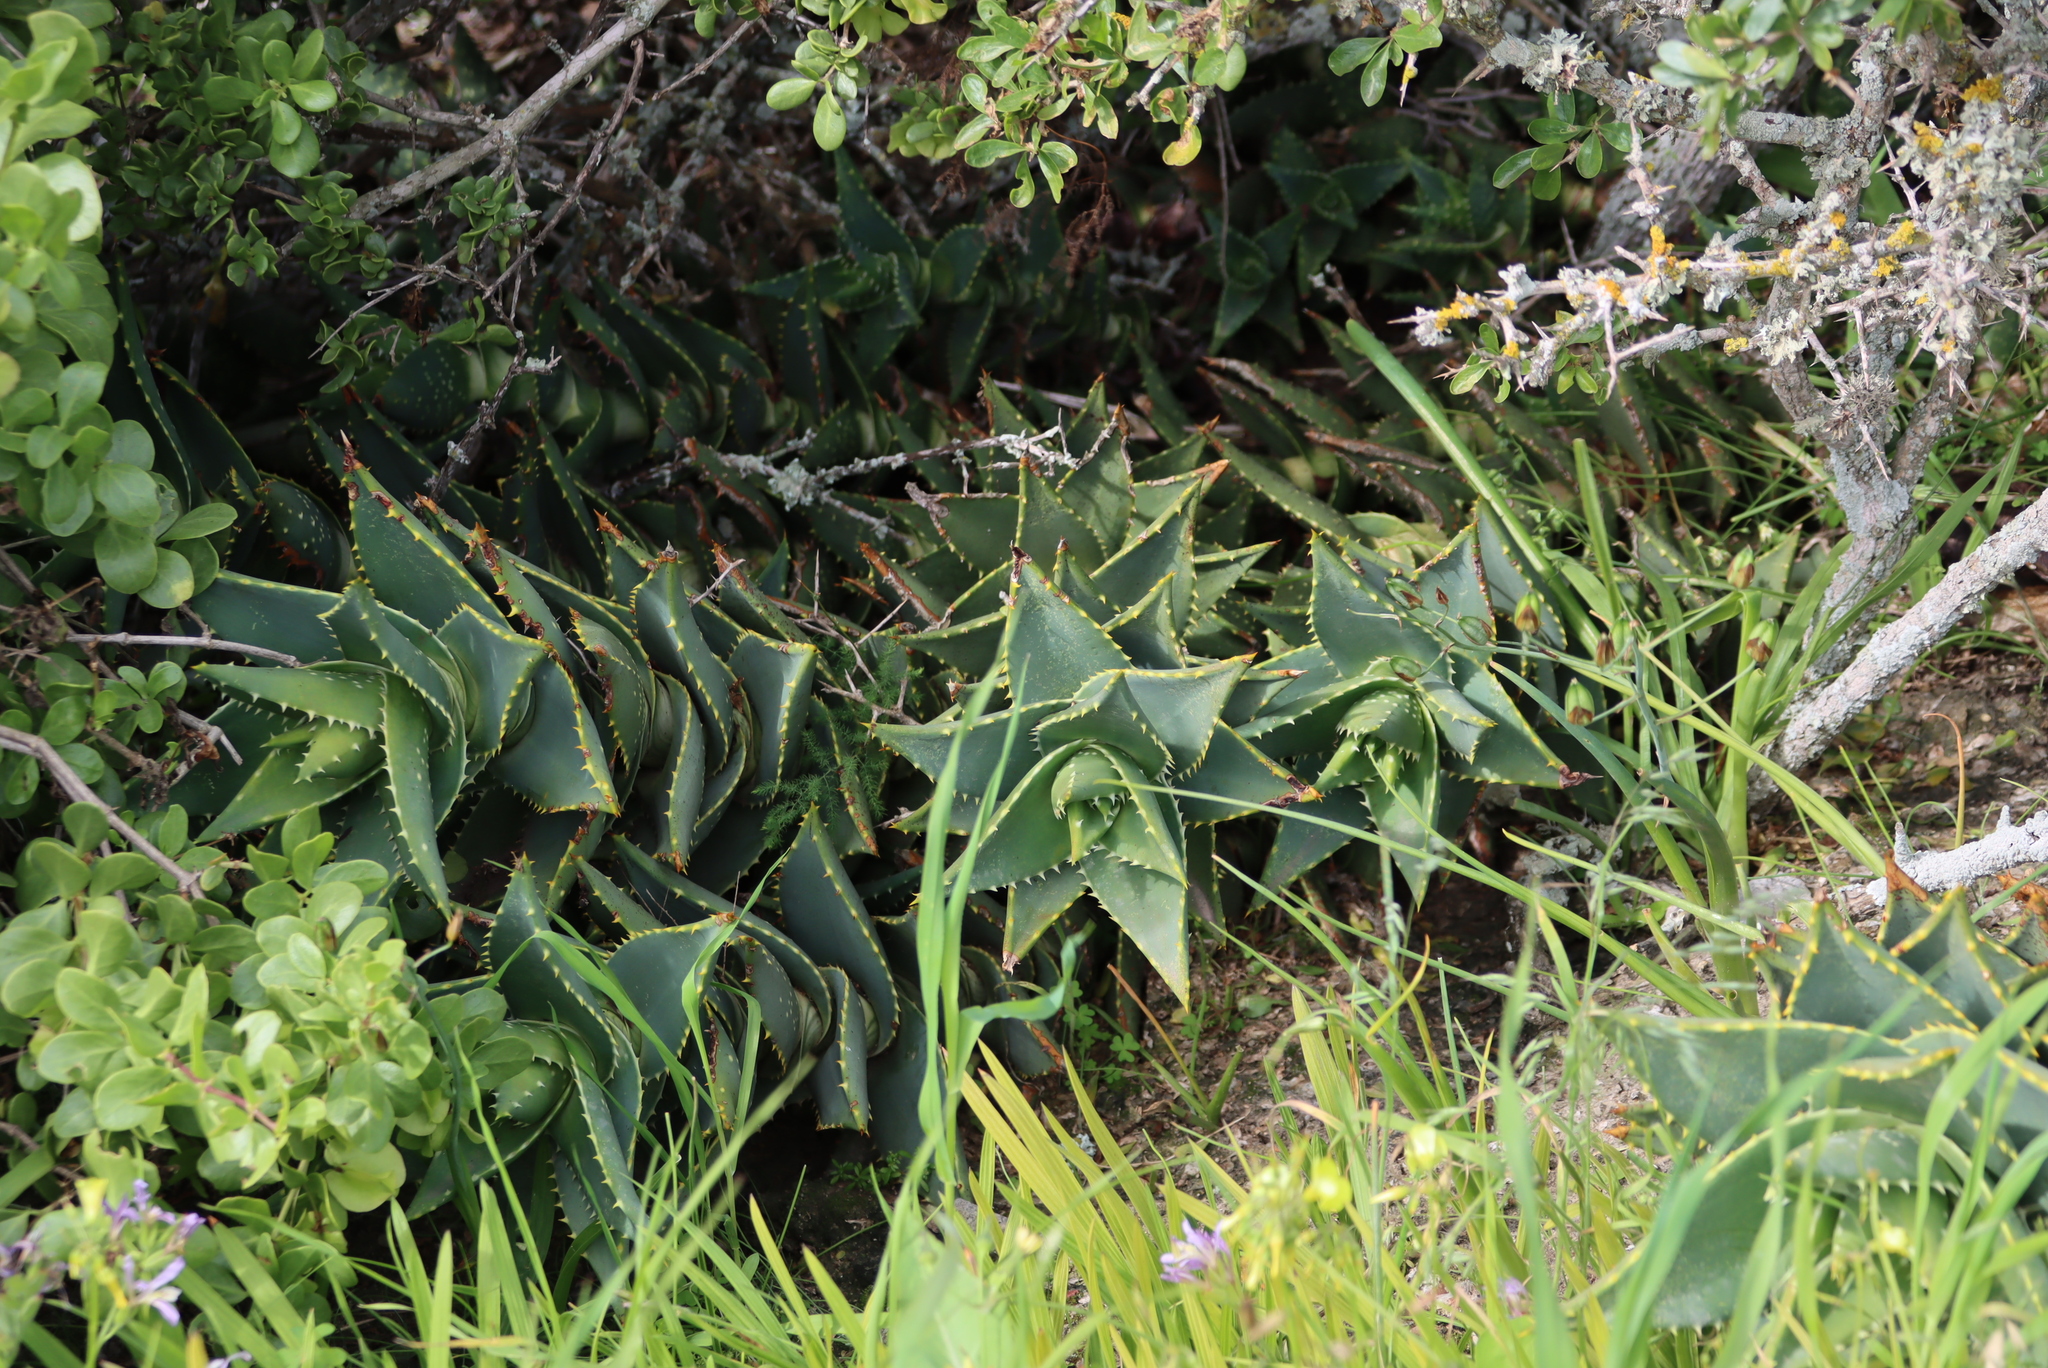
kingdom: Plantae
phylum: Tracheophyta
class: Liliopsida
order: Asparagales
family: Asphodelaceae
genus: Aloe
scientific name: Aloe distans
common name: Short-leaved aloe
